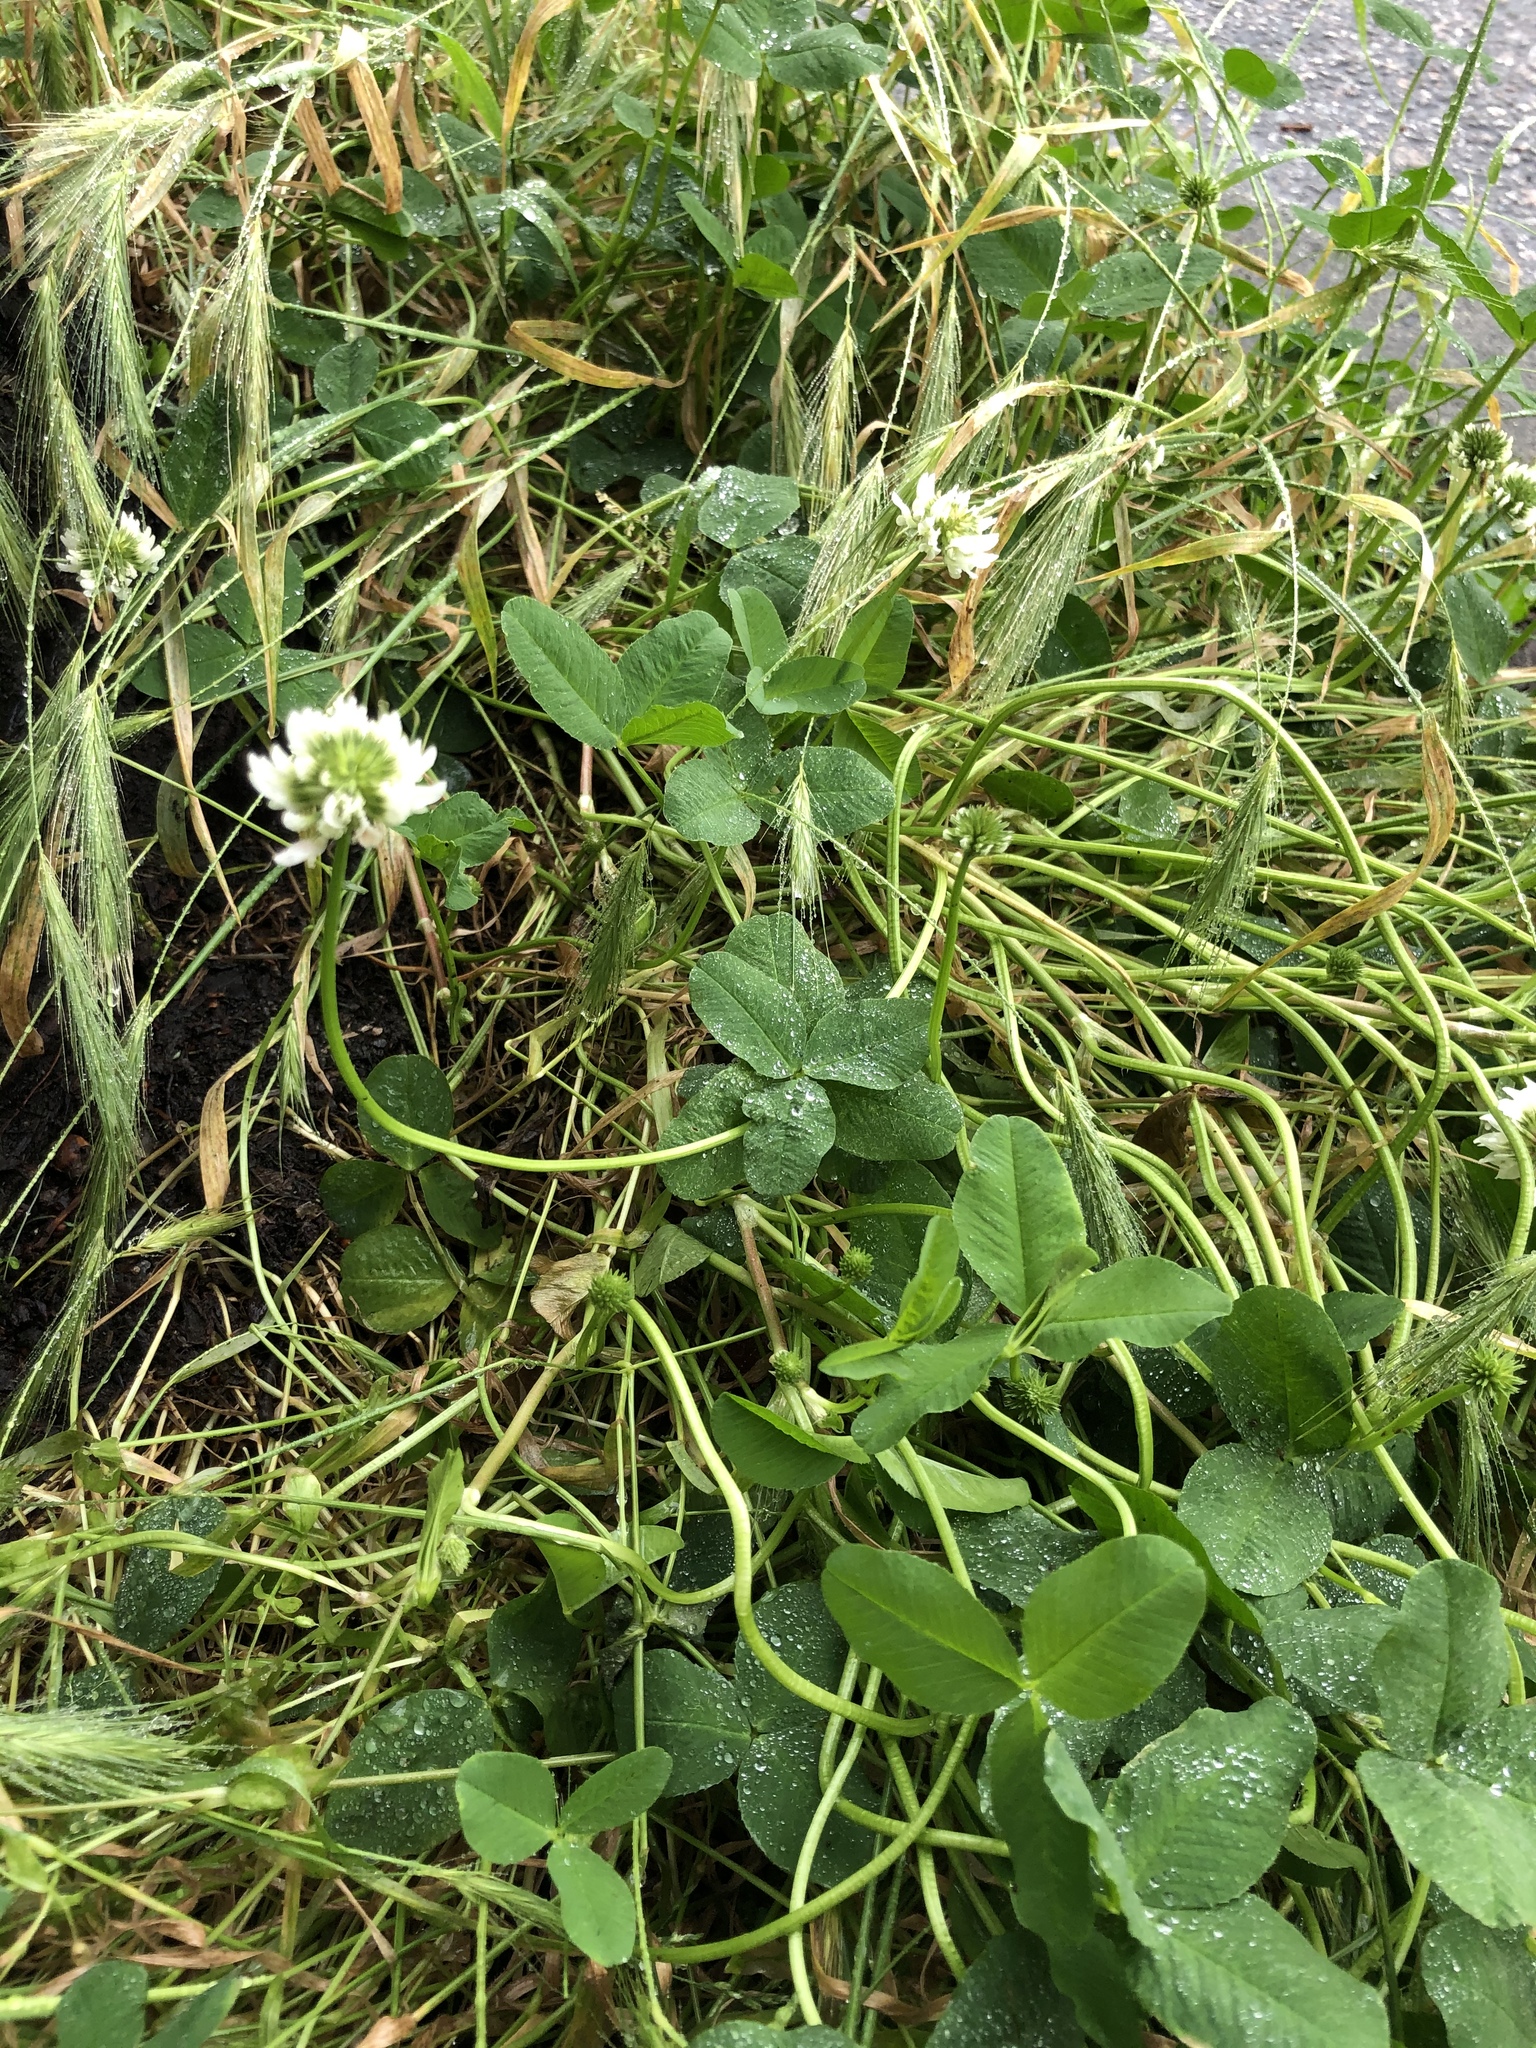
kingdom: Plantae
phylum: Tracheophyta
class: Magnoliopsida
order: Fabales
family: Fabaceae
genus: Trifolium
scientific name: Trifolium repens
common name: White clover
